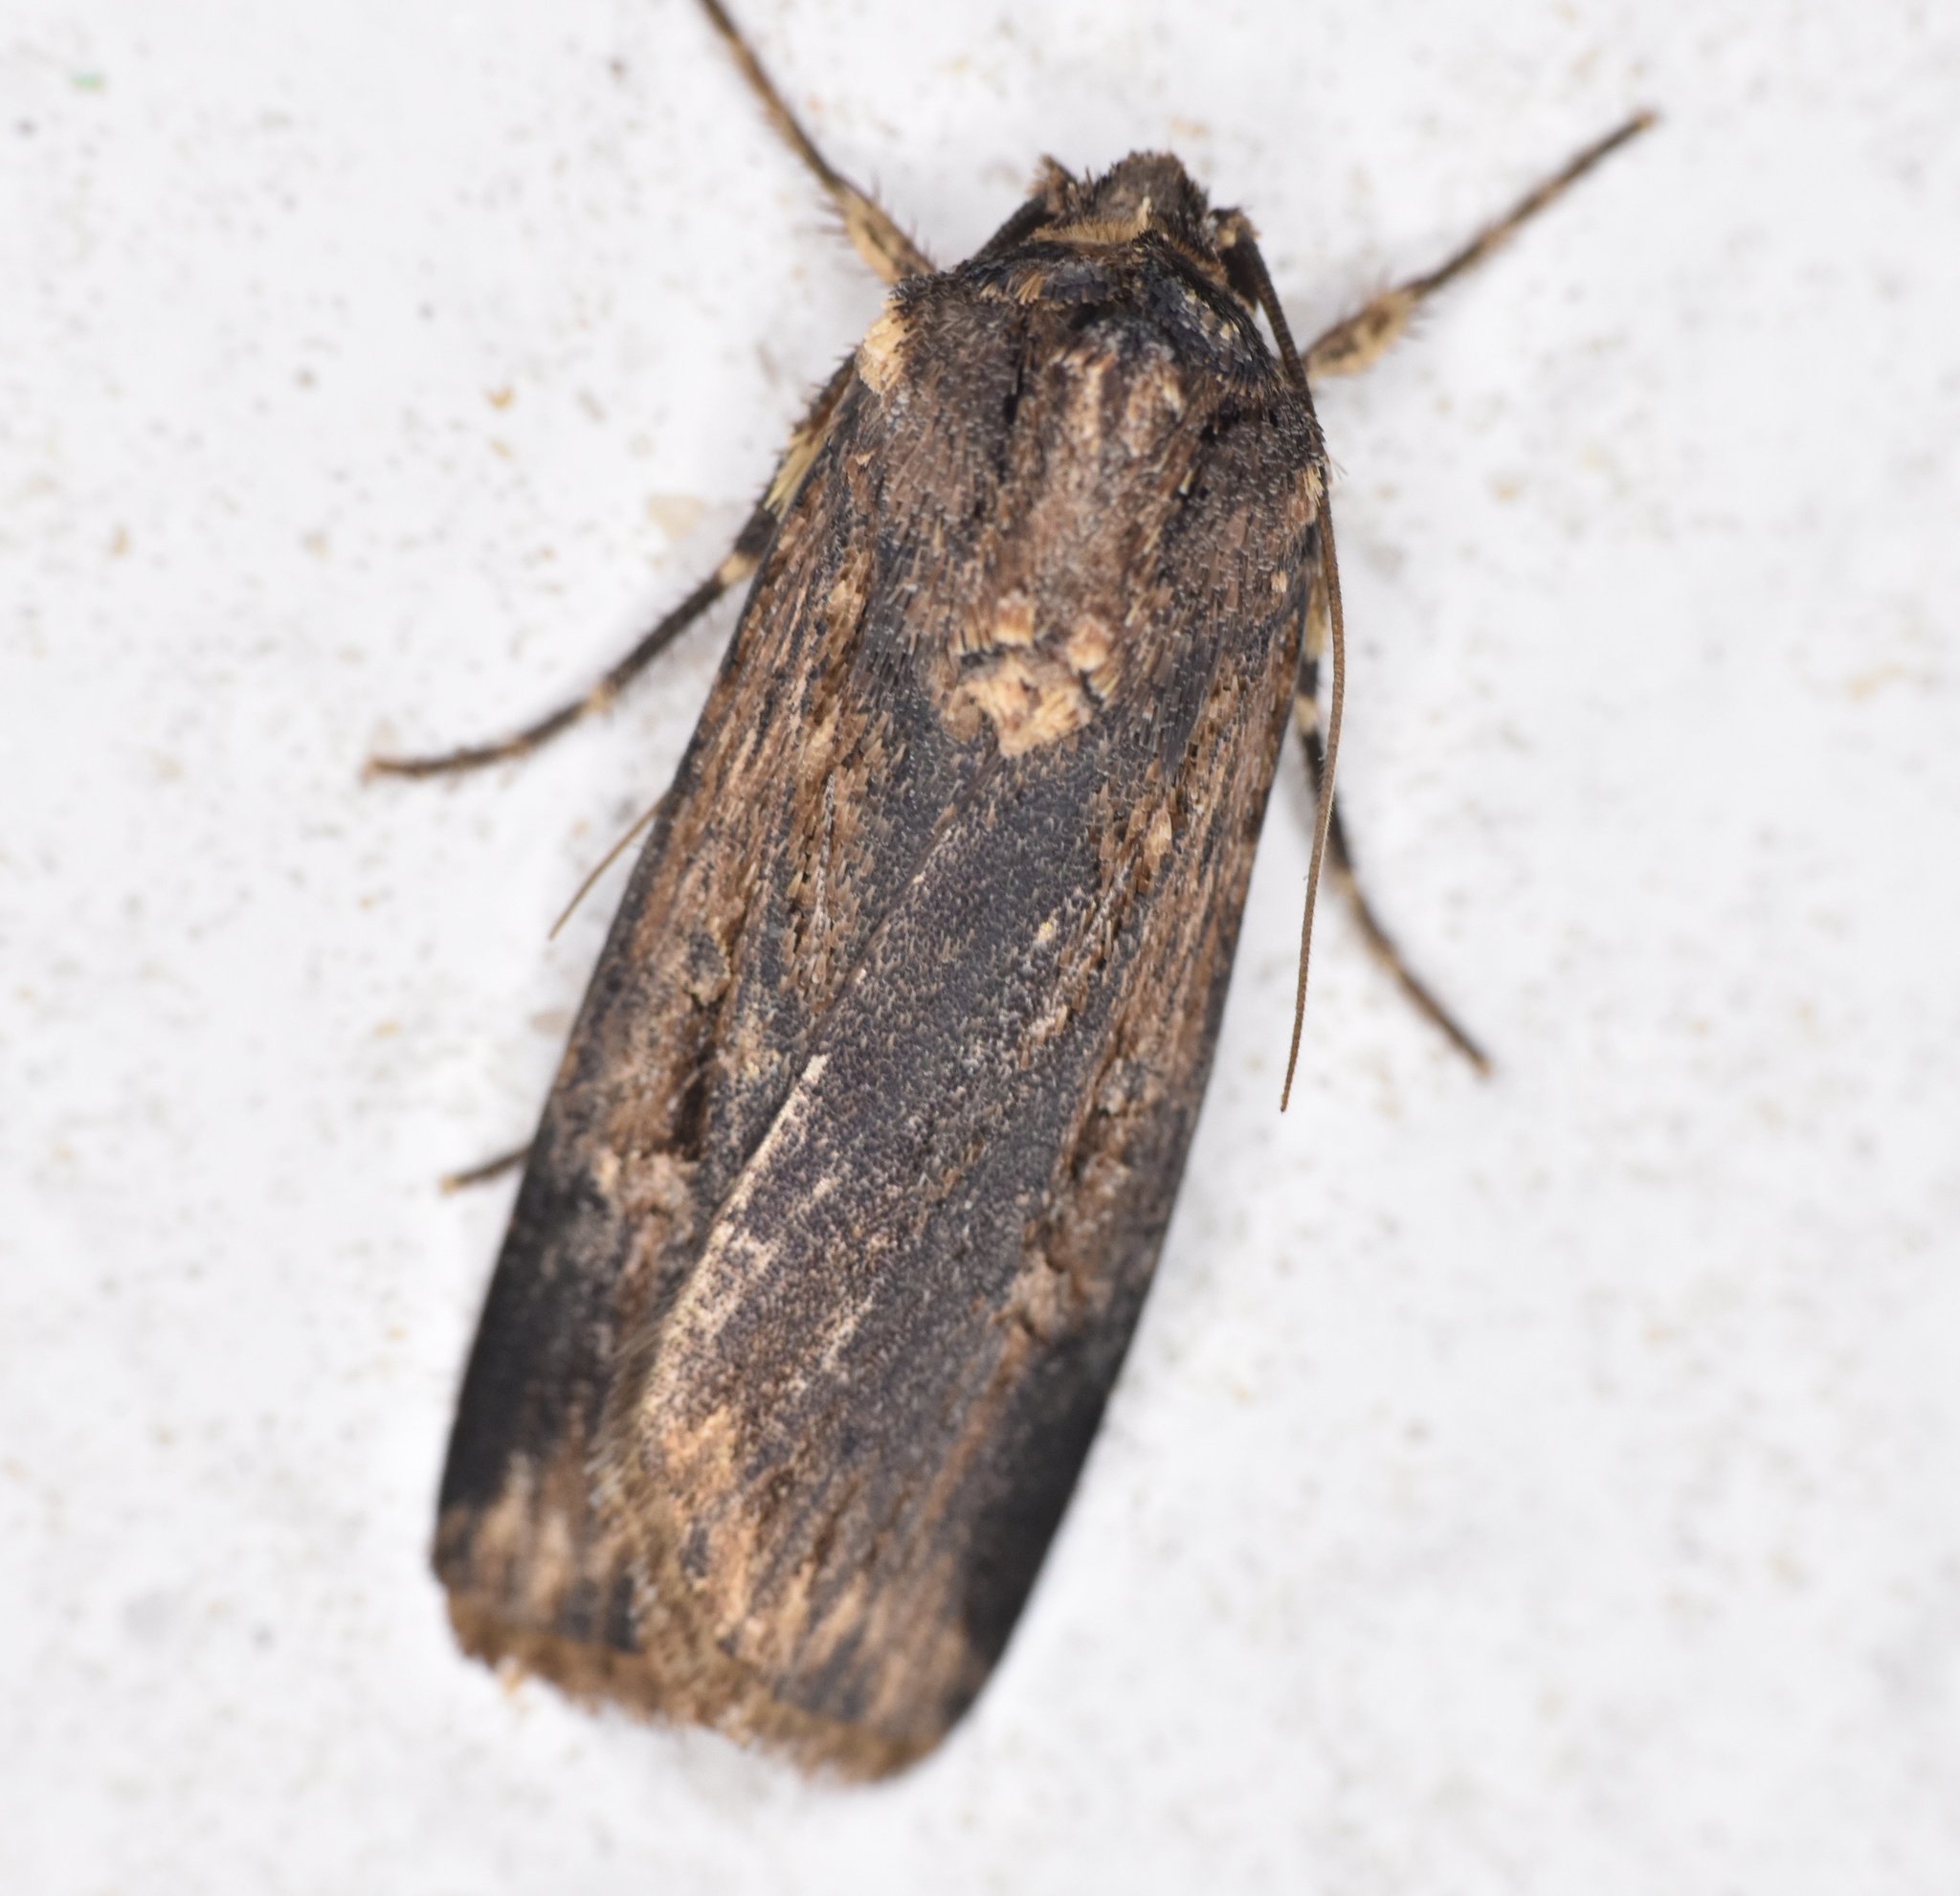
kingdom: Animalia
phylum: Arthropoda
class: Insecta
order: Lepidoptera
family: Noctuidae
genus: Feltia
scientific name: Feltia subterranea
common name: Granulate cutworm
